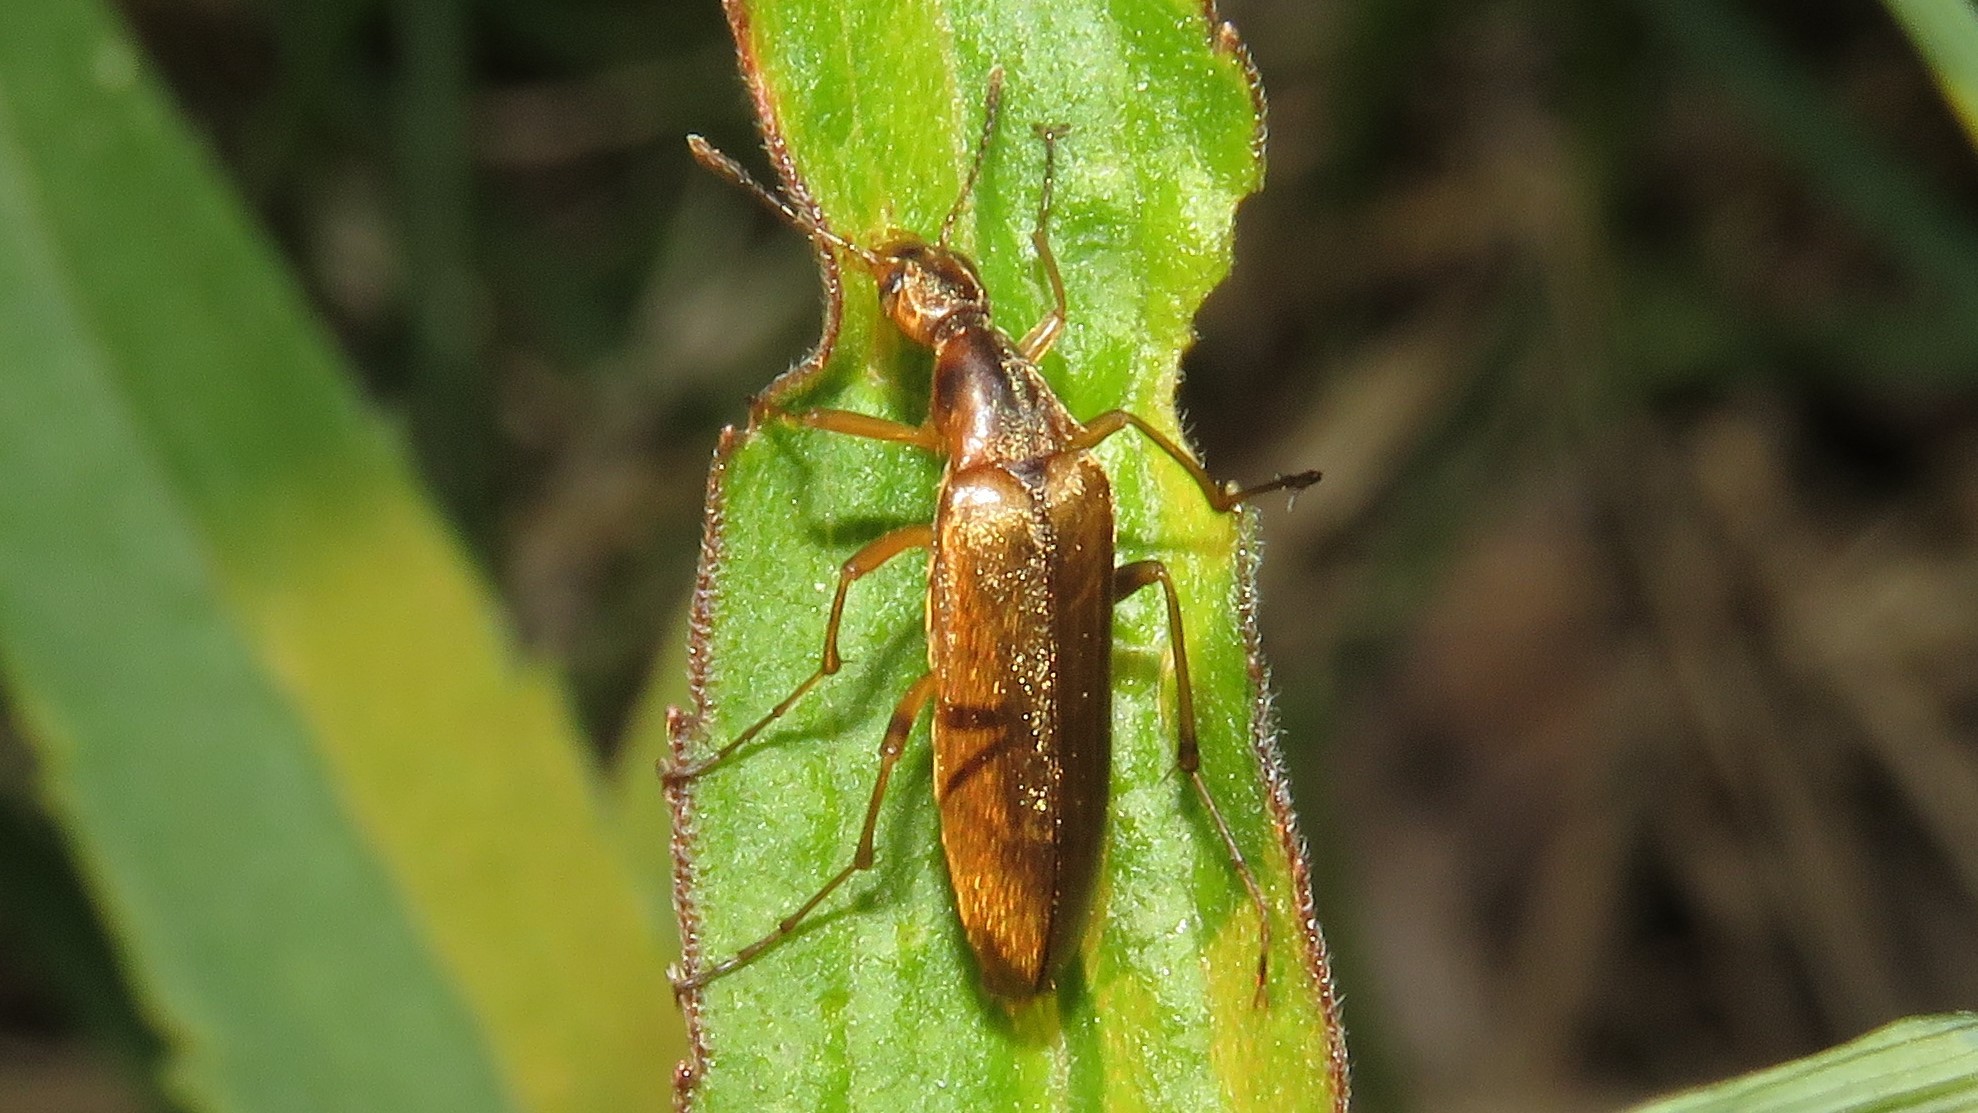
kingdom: Animalia
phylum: Arthropoda
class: Insecta
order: Coleoptera
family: Stenotrachelidae
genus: Cephaloon
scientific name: Cephaloon lepturides
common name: False leptura beetle
